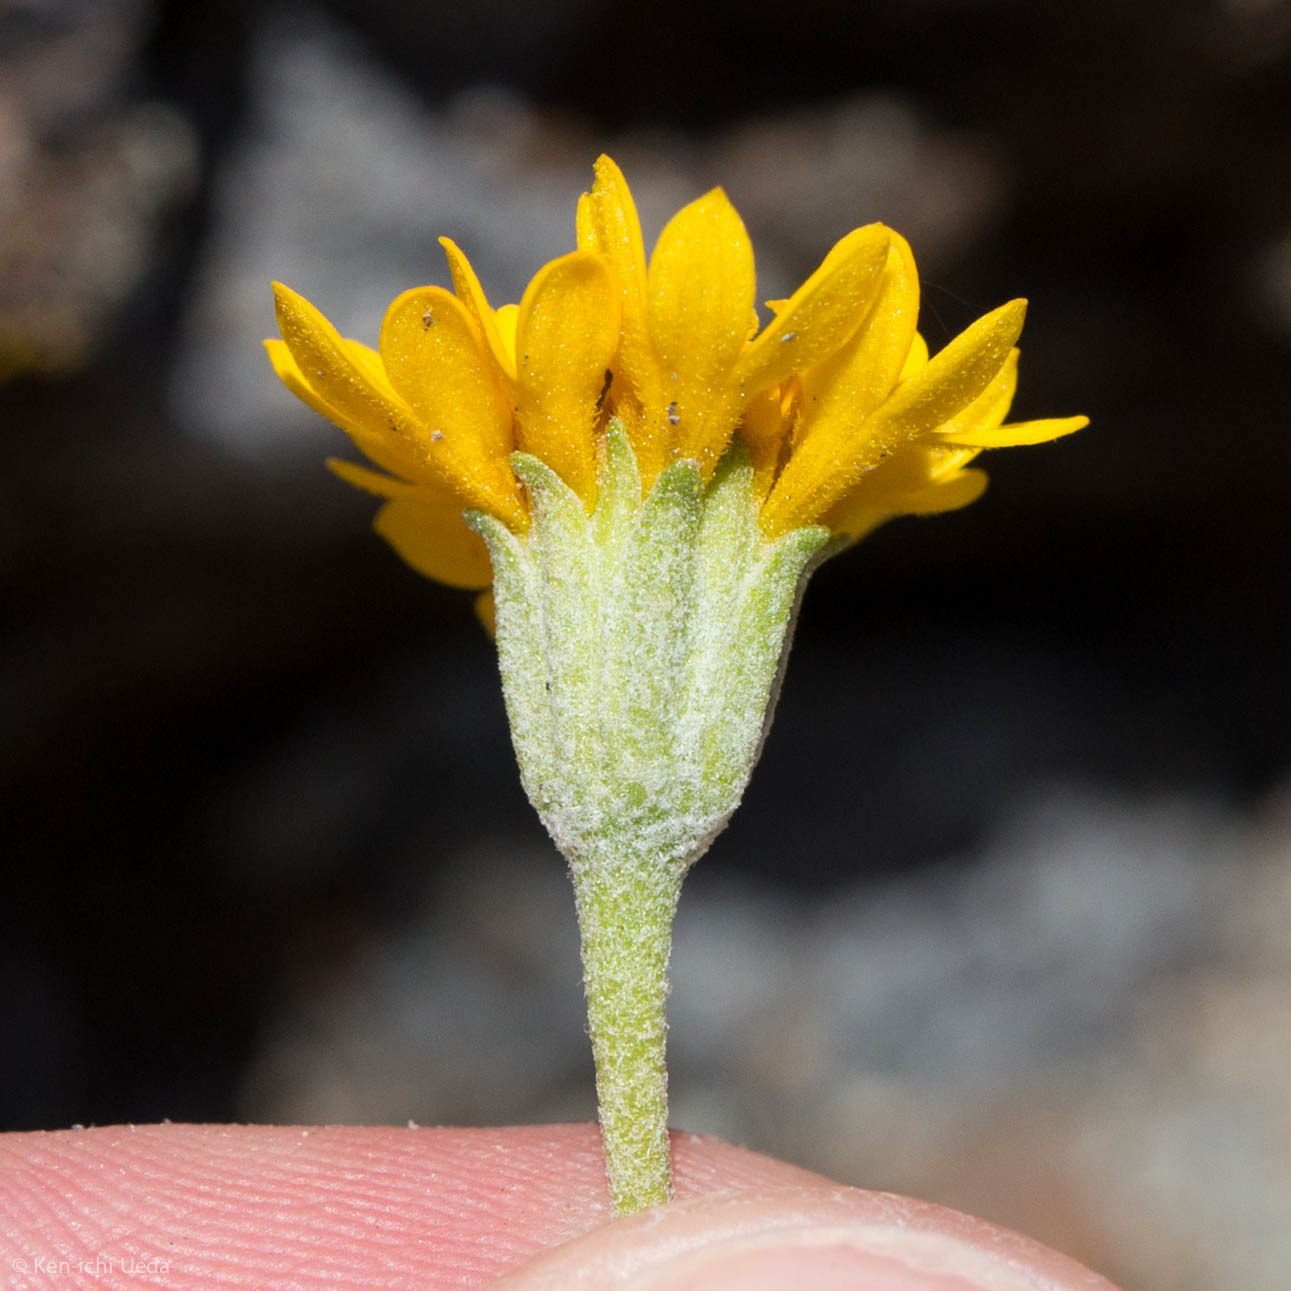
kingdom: Plantae
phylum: Tracheophyta
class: Magnoliopsida
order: Asterales
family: Asteraceae
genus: Chaenactis
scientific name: Chaenactis glabriuscula
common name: Yellow pincushion
